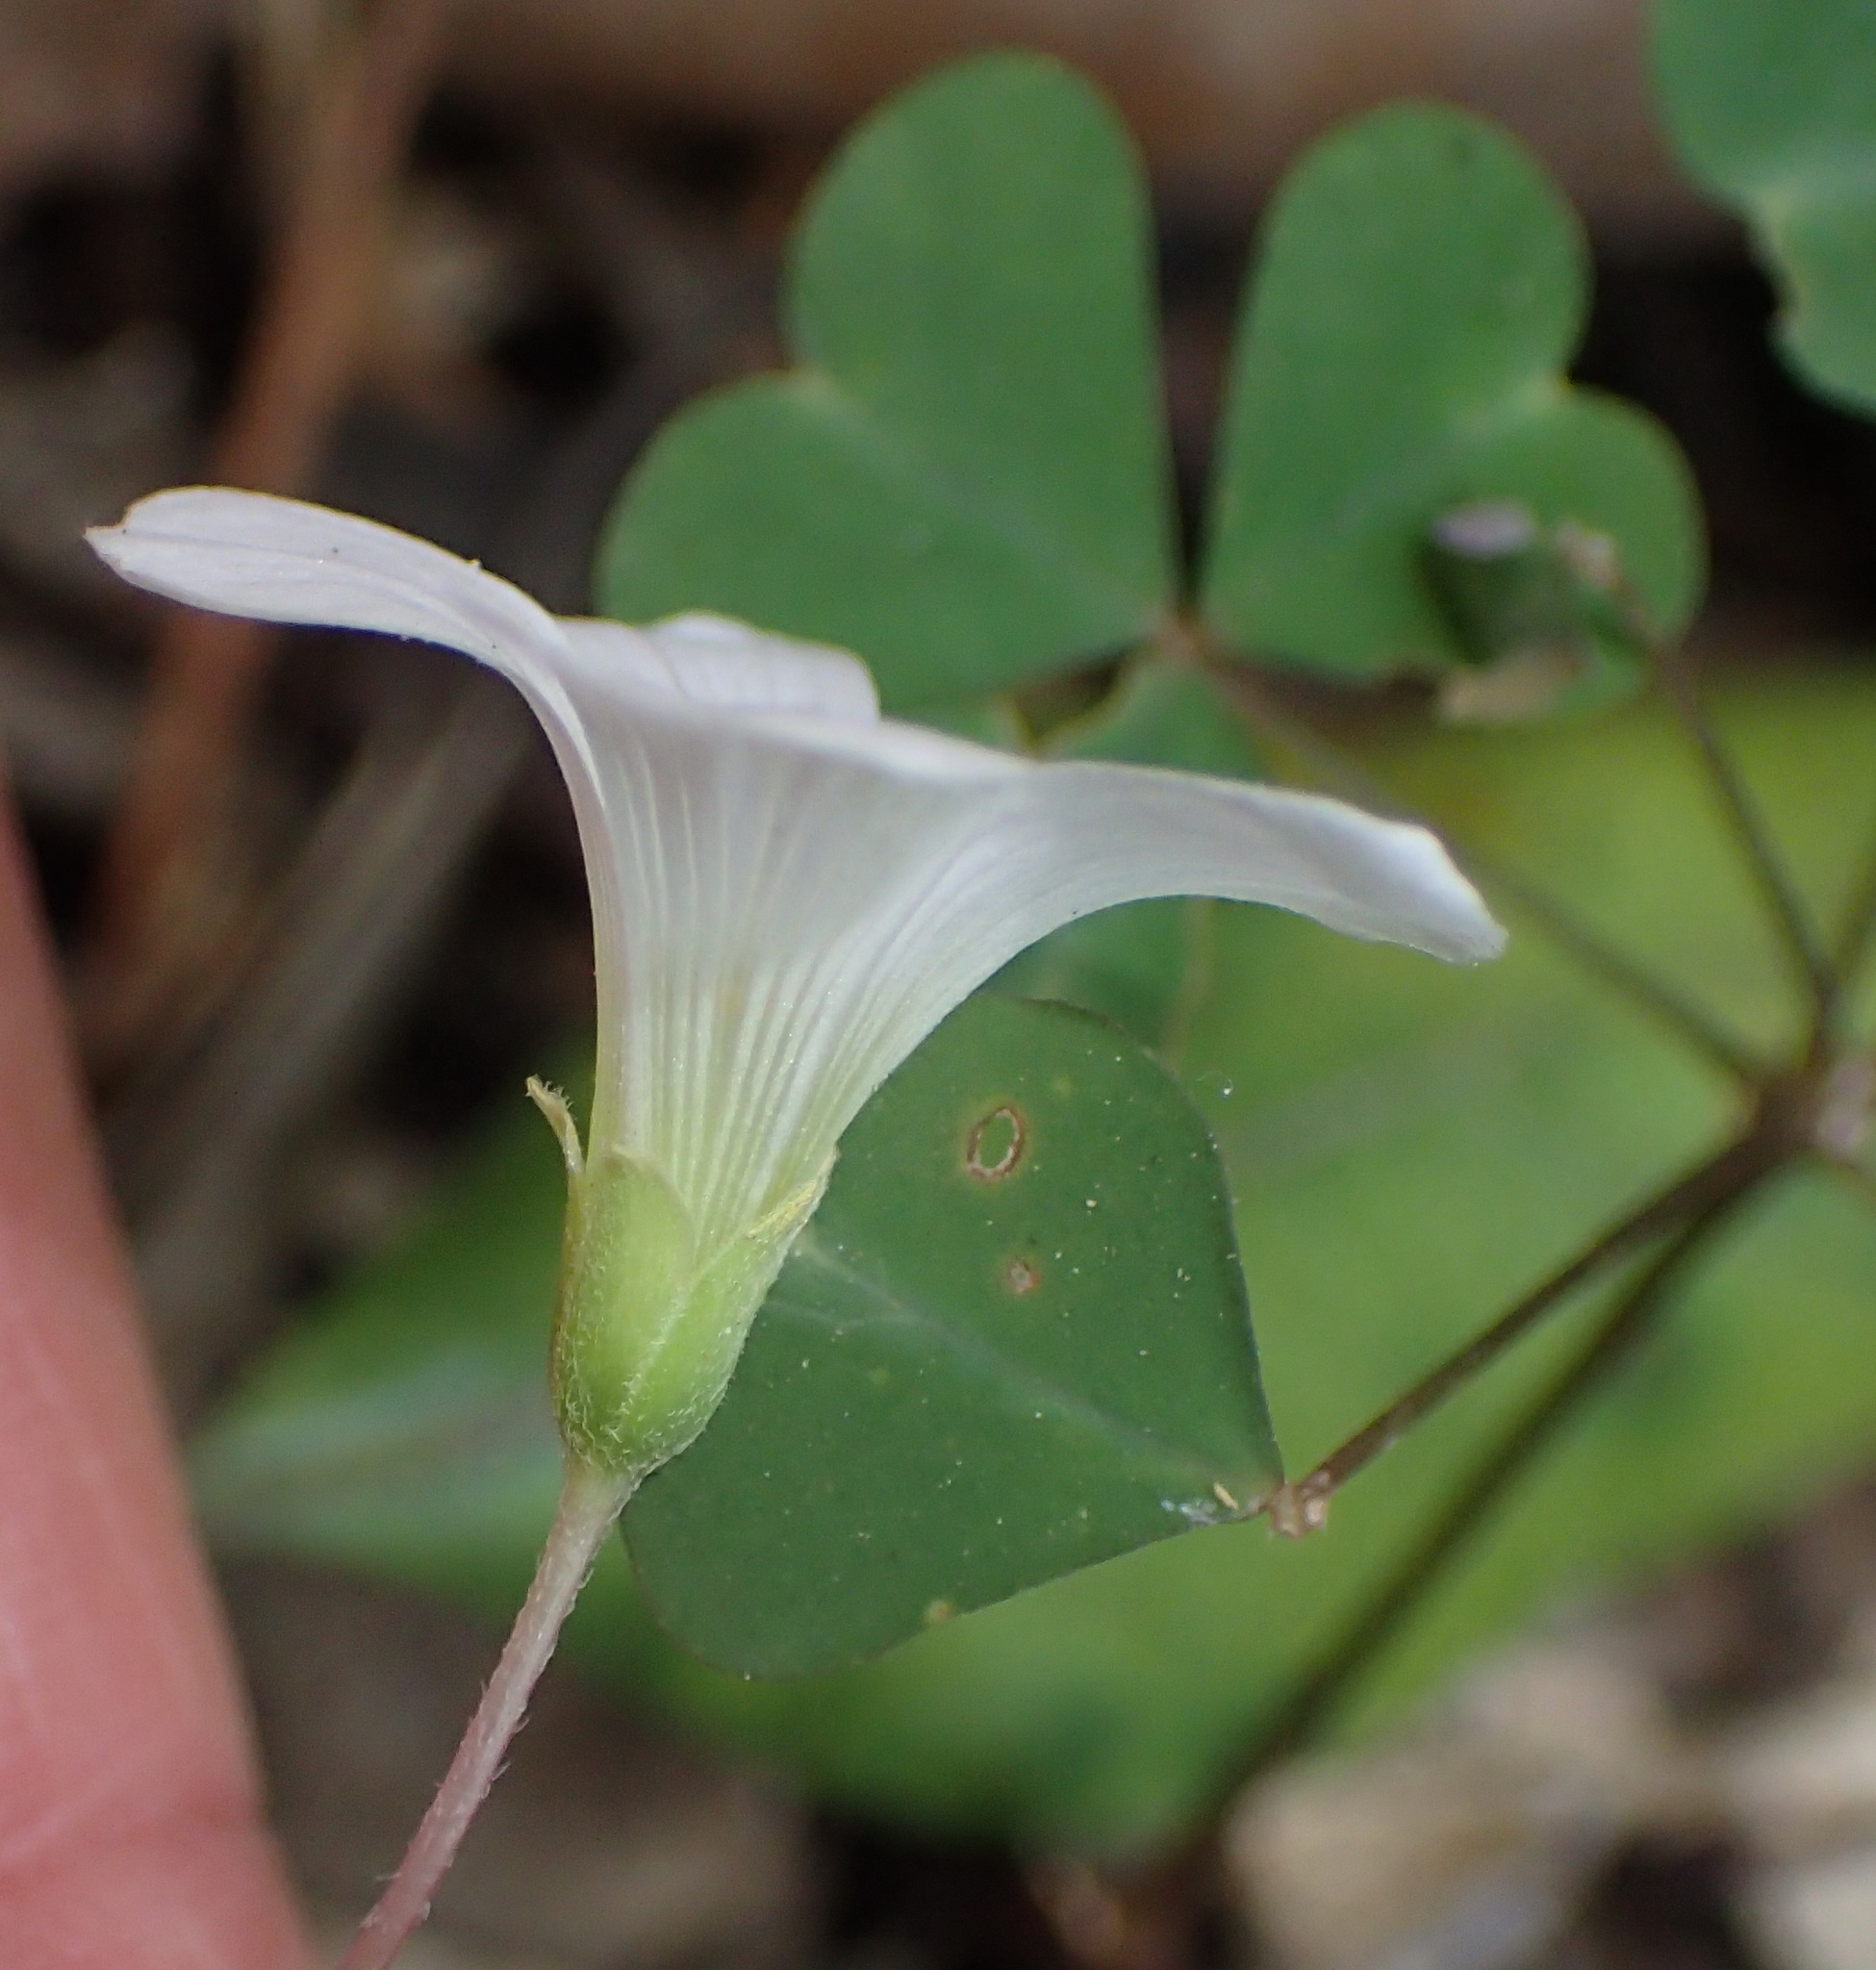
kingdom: Plantae
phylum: Tracheophyta
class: Magnoliopsida
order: Oxalidales
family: Oxalidaceae
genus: Oxalis
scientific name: Oxalis incarnata
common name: Pale pink-sorrel
